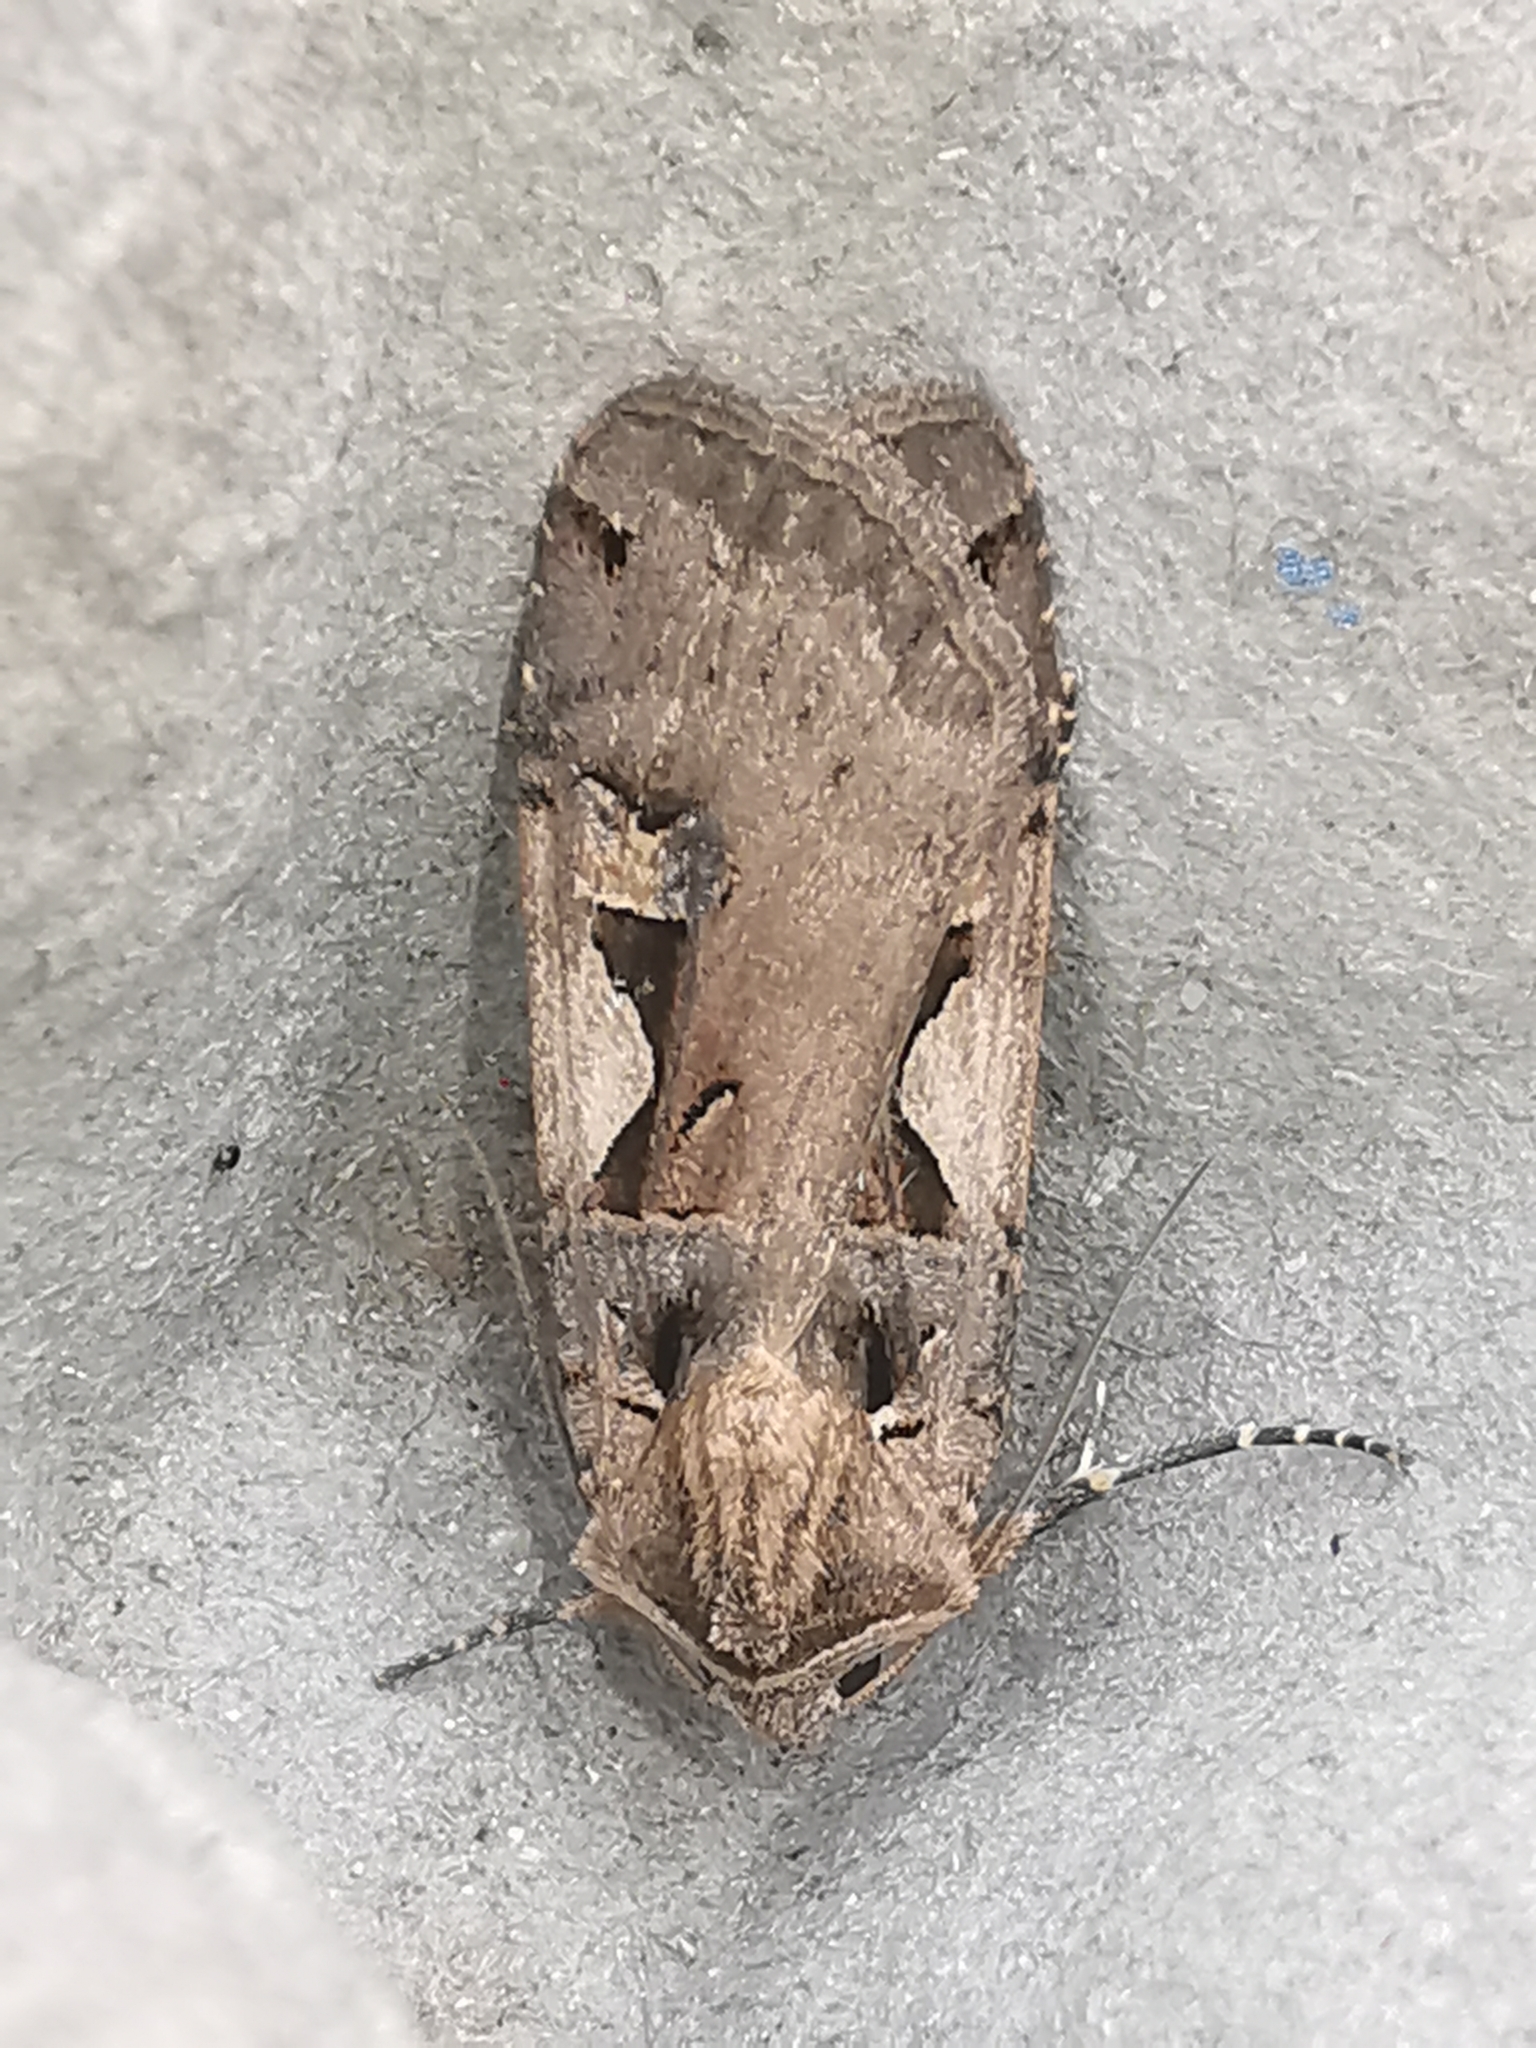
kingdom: Animalia
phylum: Arthropoda
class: Insecta
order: Lepidoptera
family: Noctuidae
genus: Xestia
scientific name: Xestia c-nigrum
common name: Setaceous hebrew character
